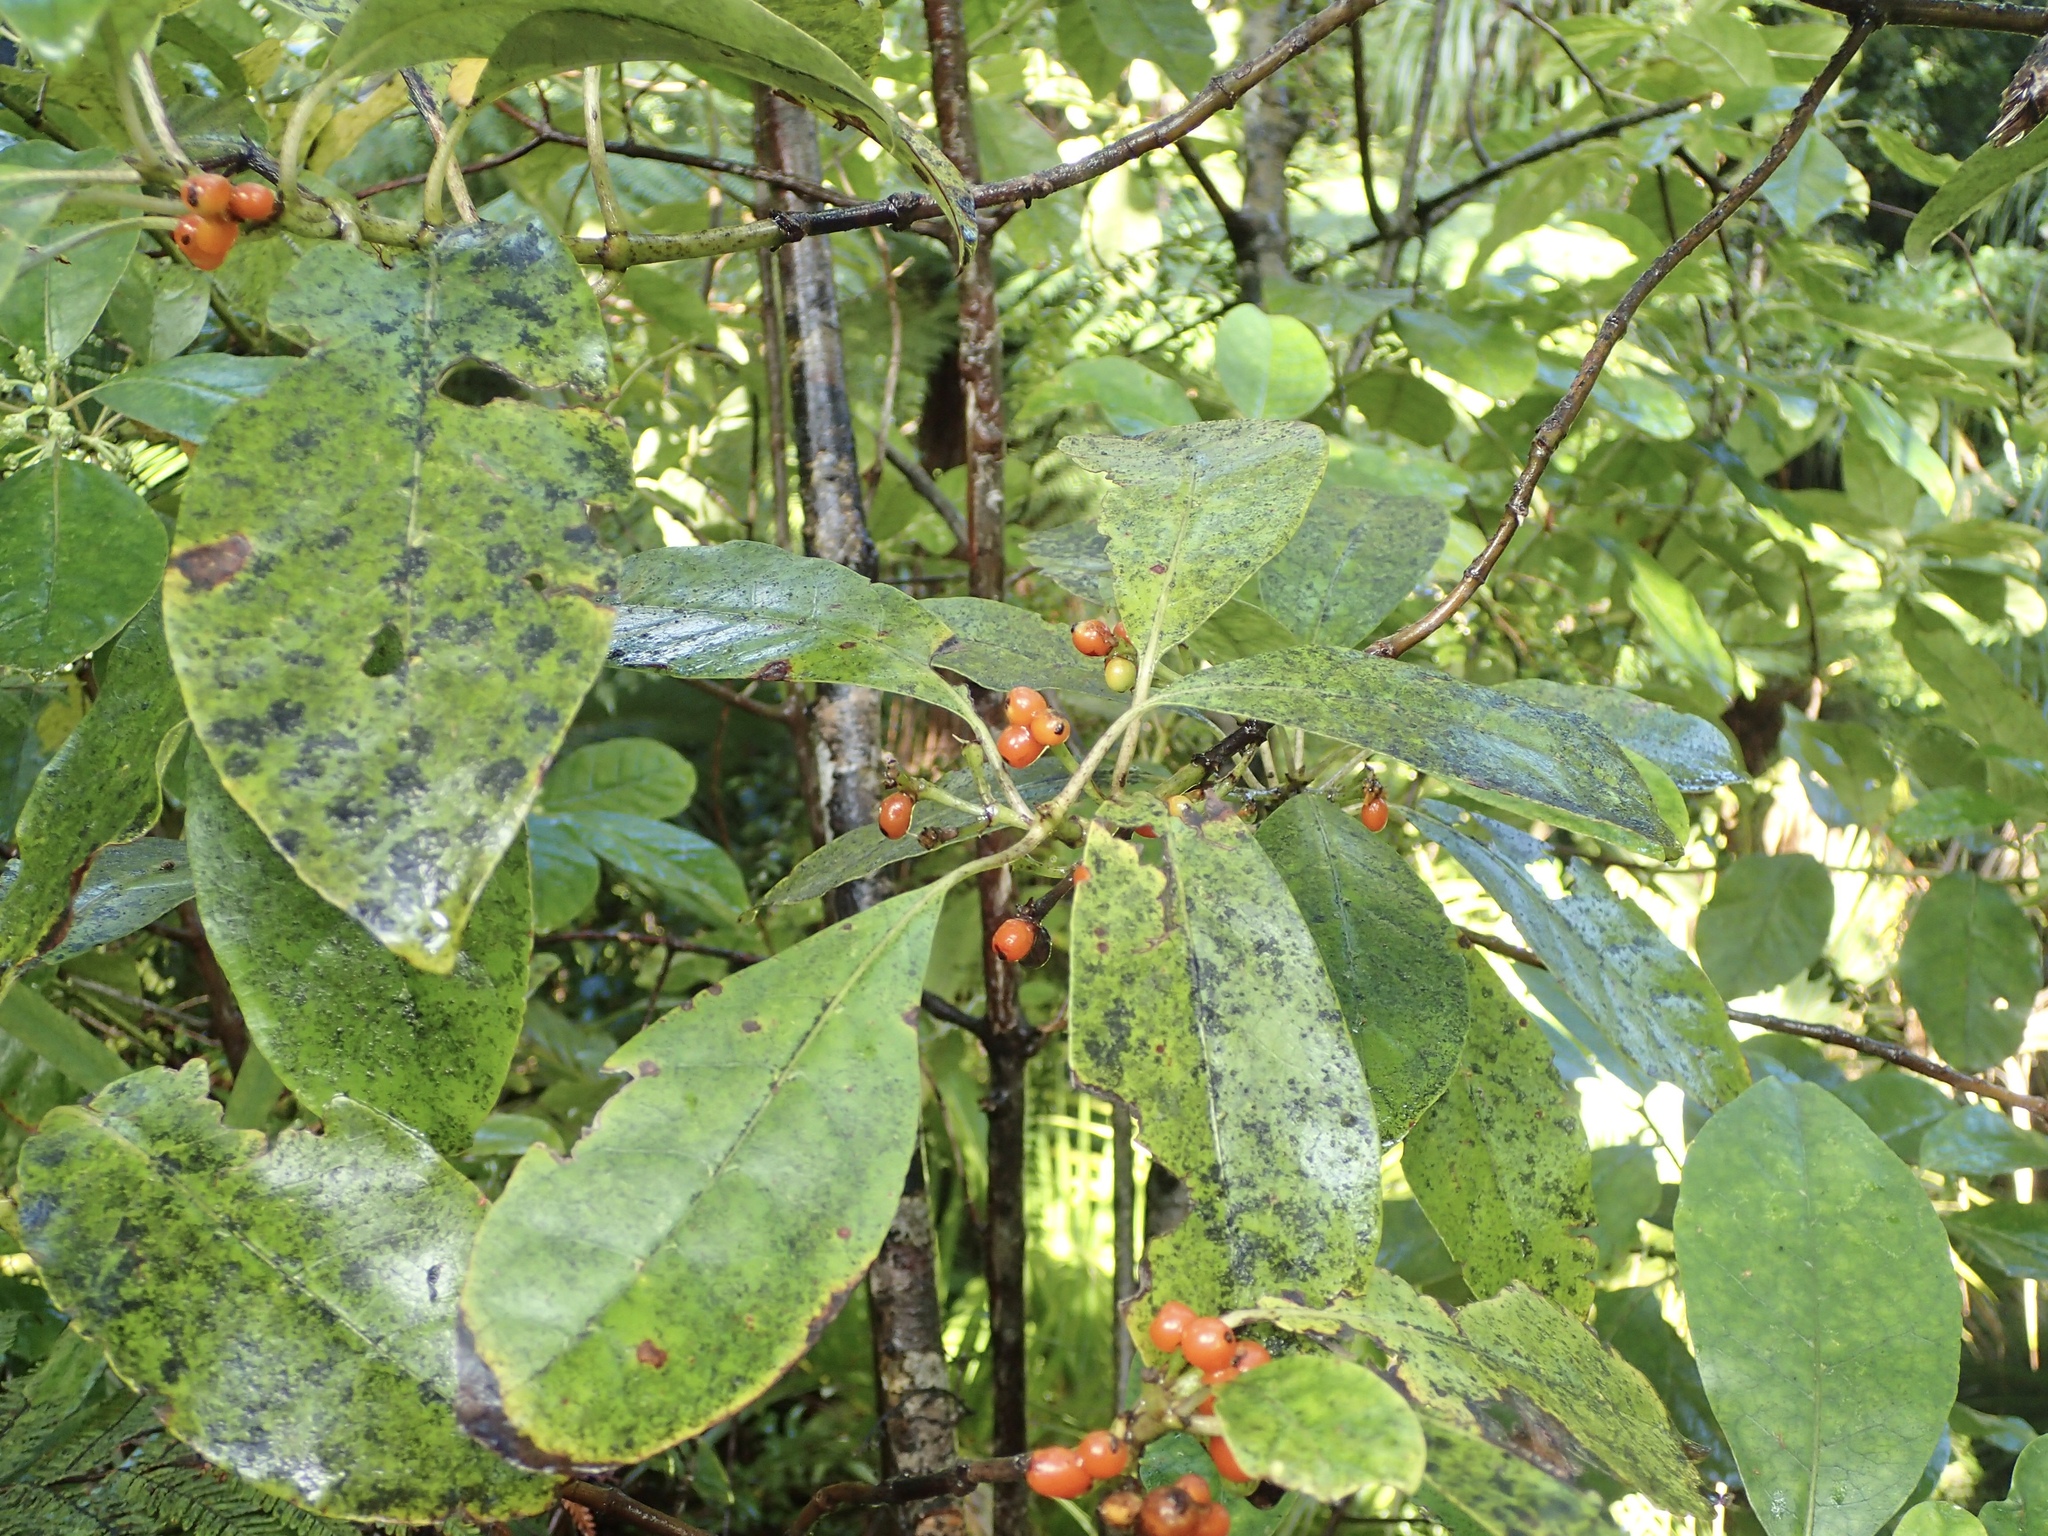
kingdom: Plantae
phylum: Tracheophyta
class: Magnoliopsida
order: Gentianales
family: Rubiaceae
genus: Coprosma
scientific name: Coprosma autumnalis
